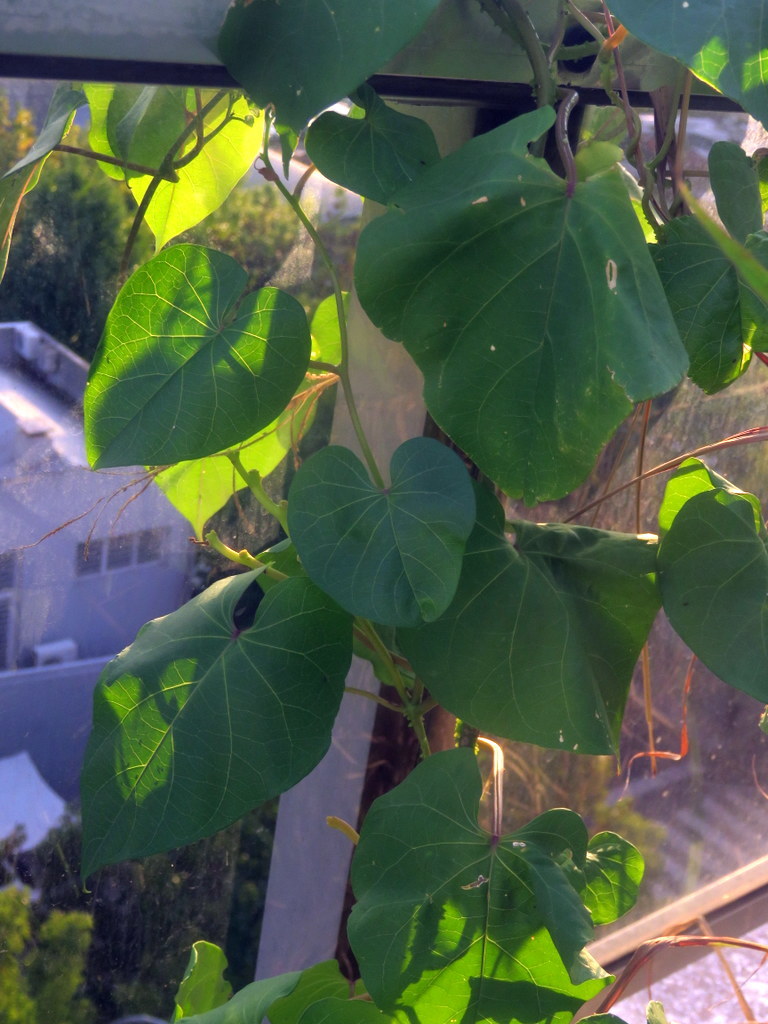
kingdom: Plantae
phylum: Tracheophyta
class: Magnoliopsida
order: Solanales
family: Convolvulaceae
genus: Ipomoea
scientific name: Ipomoea alba
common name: Moonflower
